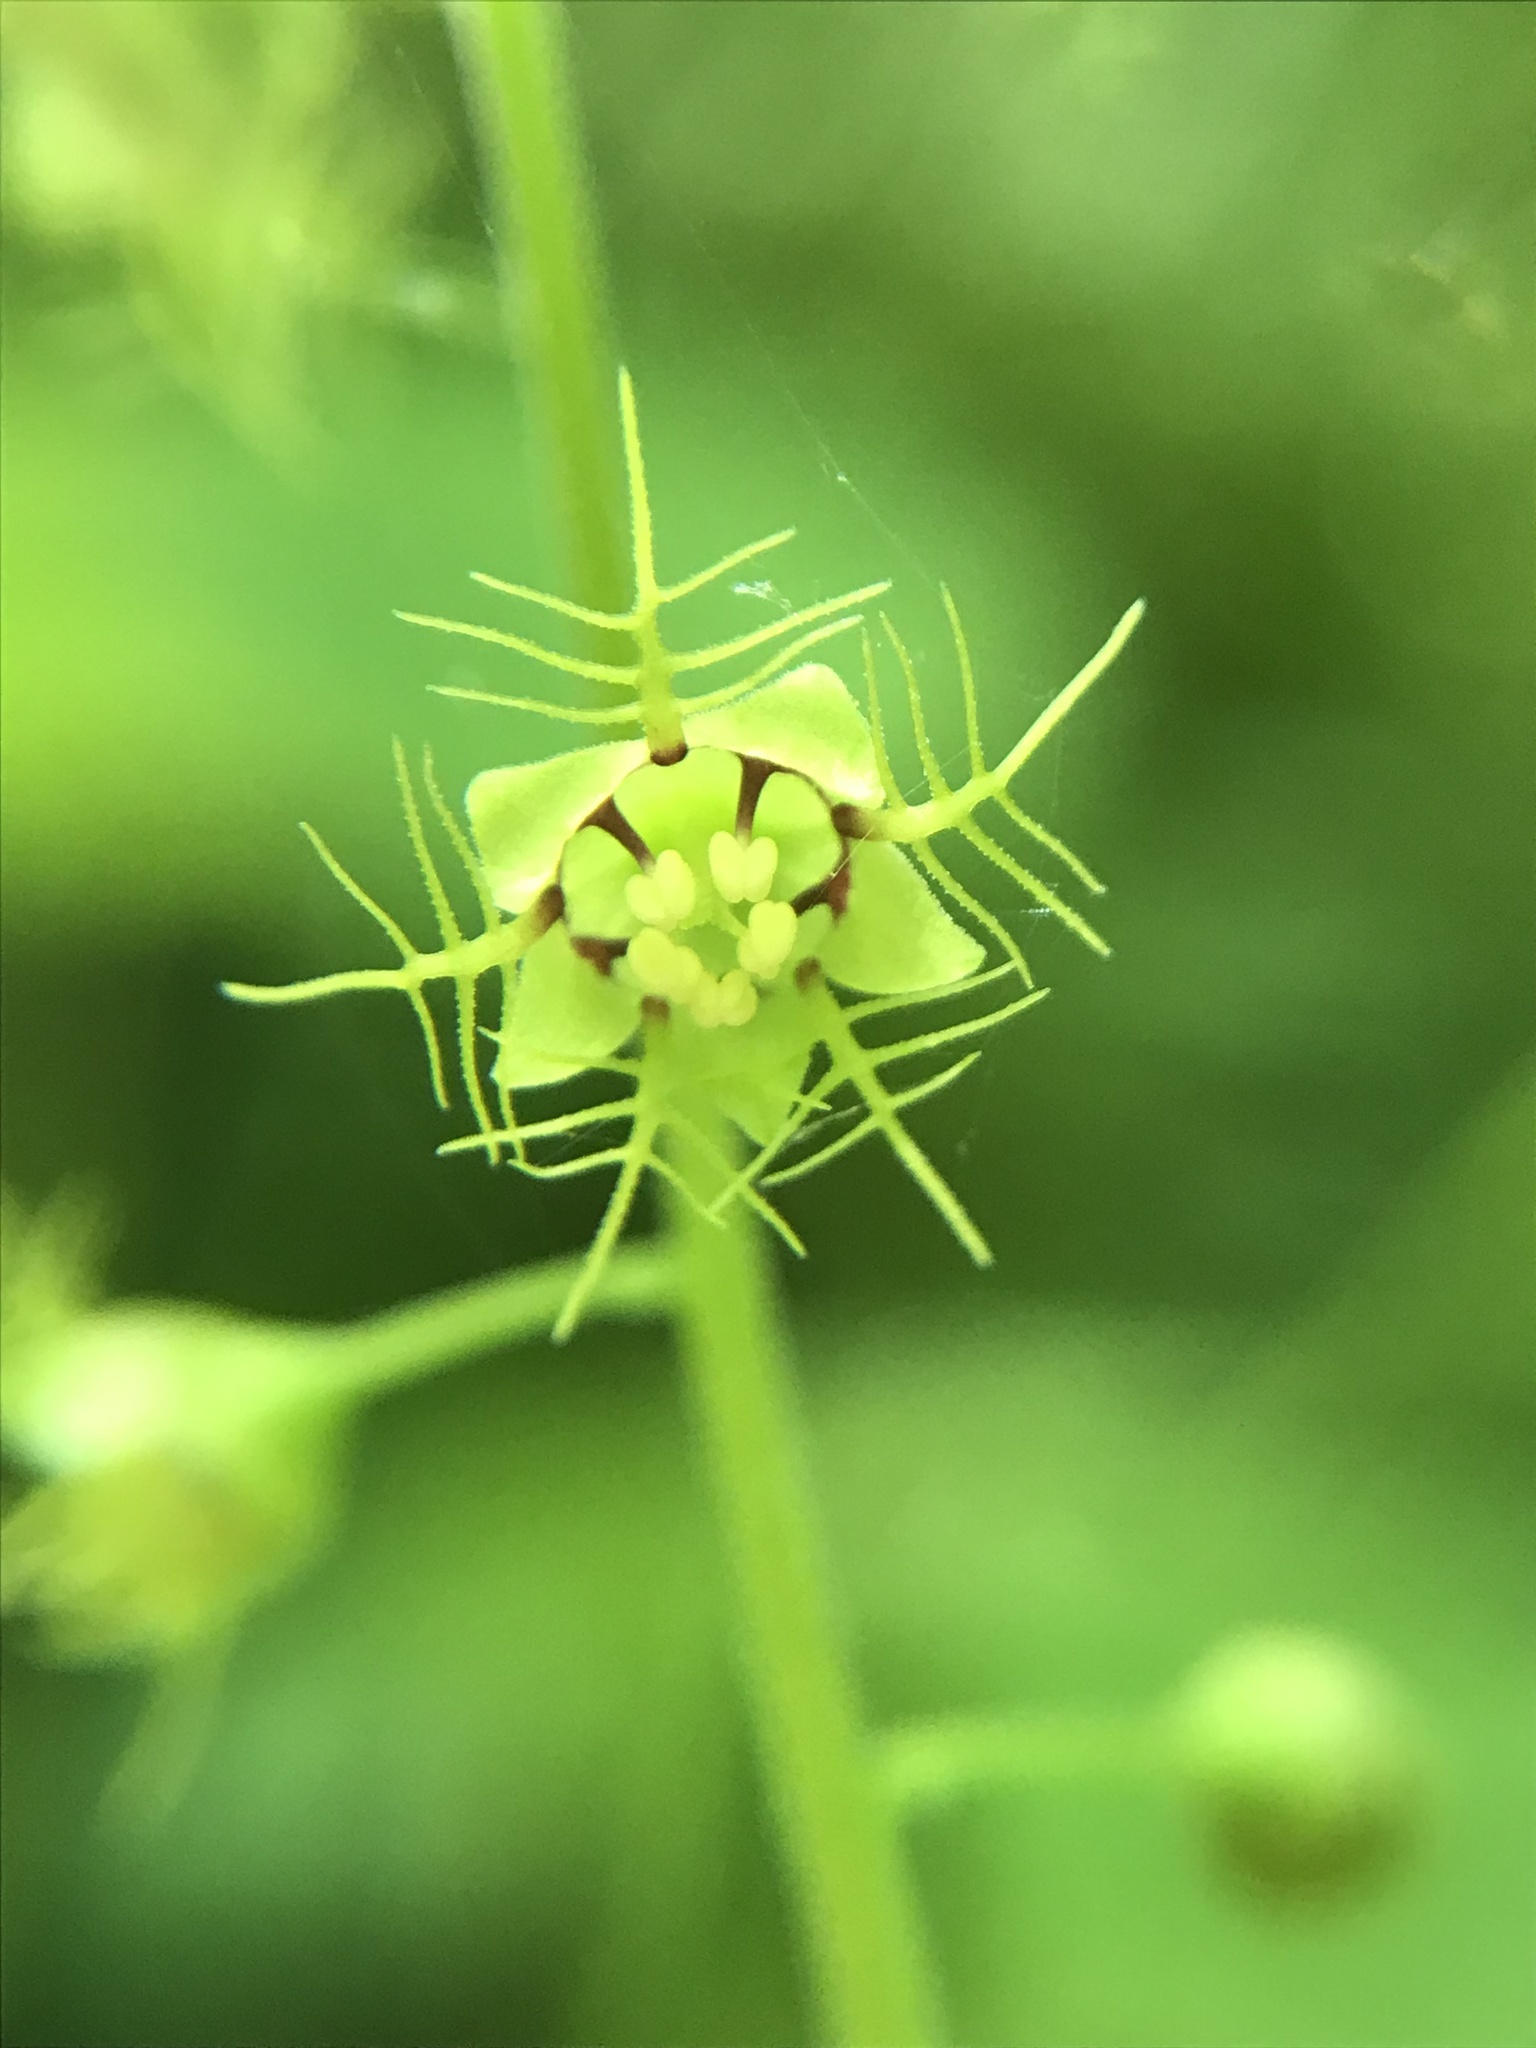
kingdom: Plantae
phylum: Tracheophyta
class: Magnoliopsida
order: Saxifragales
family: Saxifragaceae
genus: Mitellastra
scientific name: Mitellastra caulescens
